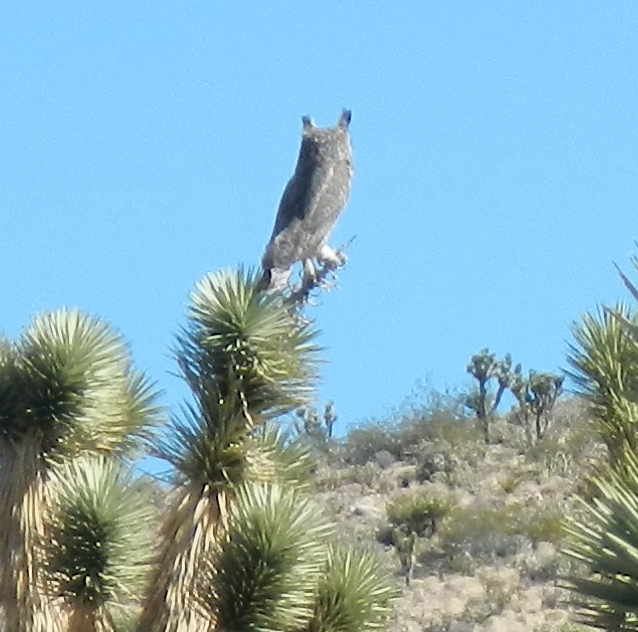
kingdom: Animalia
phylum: Chordata
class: Aves
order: Strigiformes
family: Strigidae
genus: Bubo
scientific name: Bubo virginianus
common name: Great horned owl
